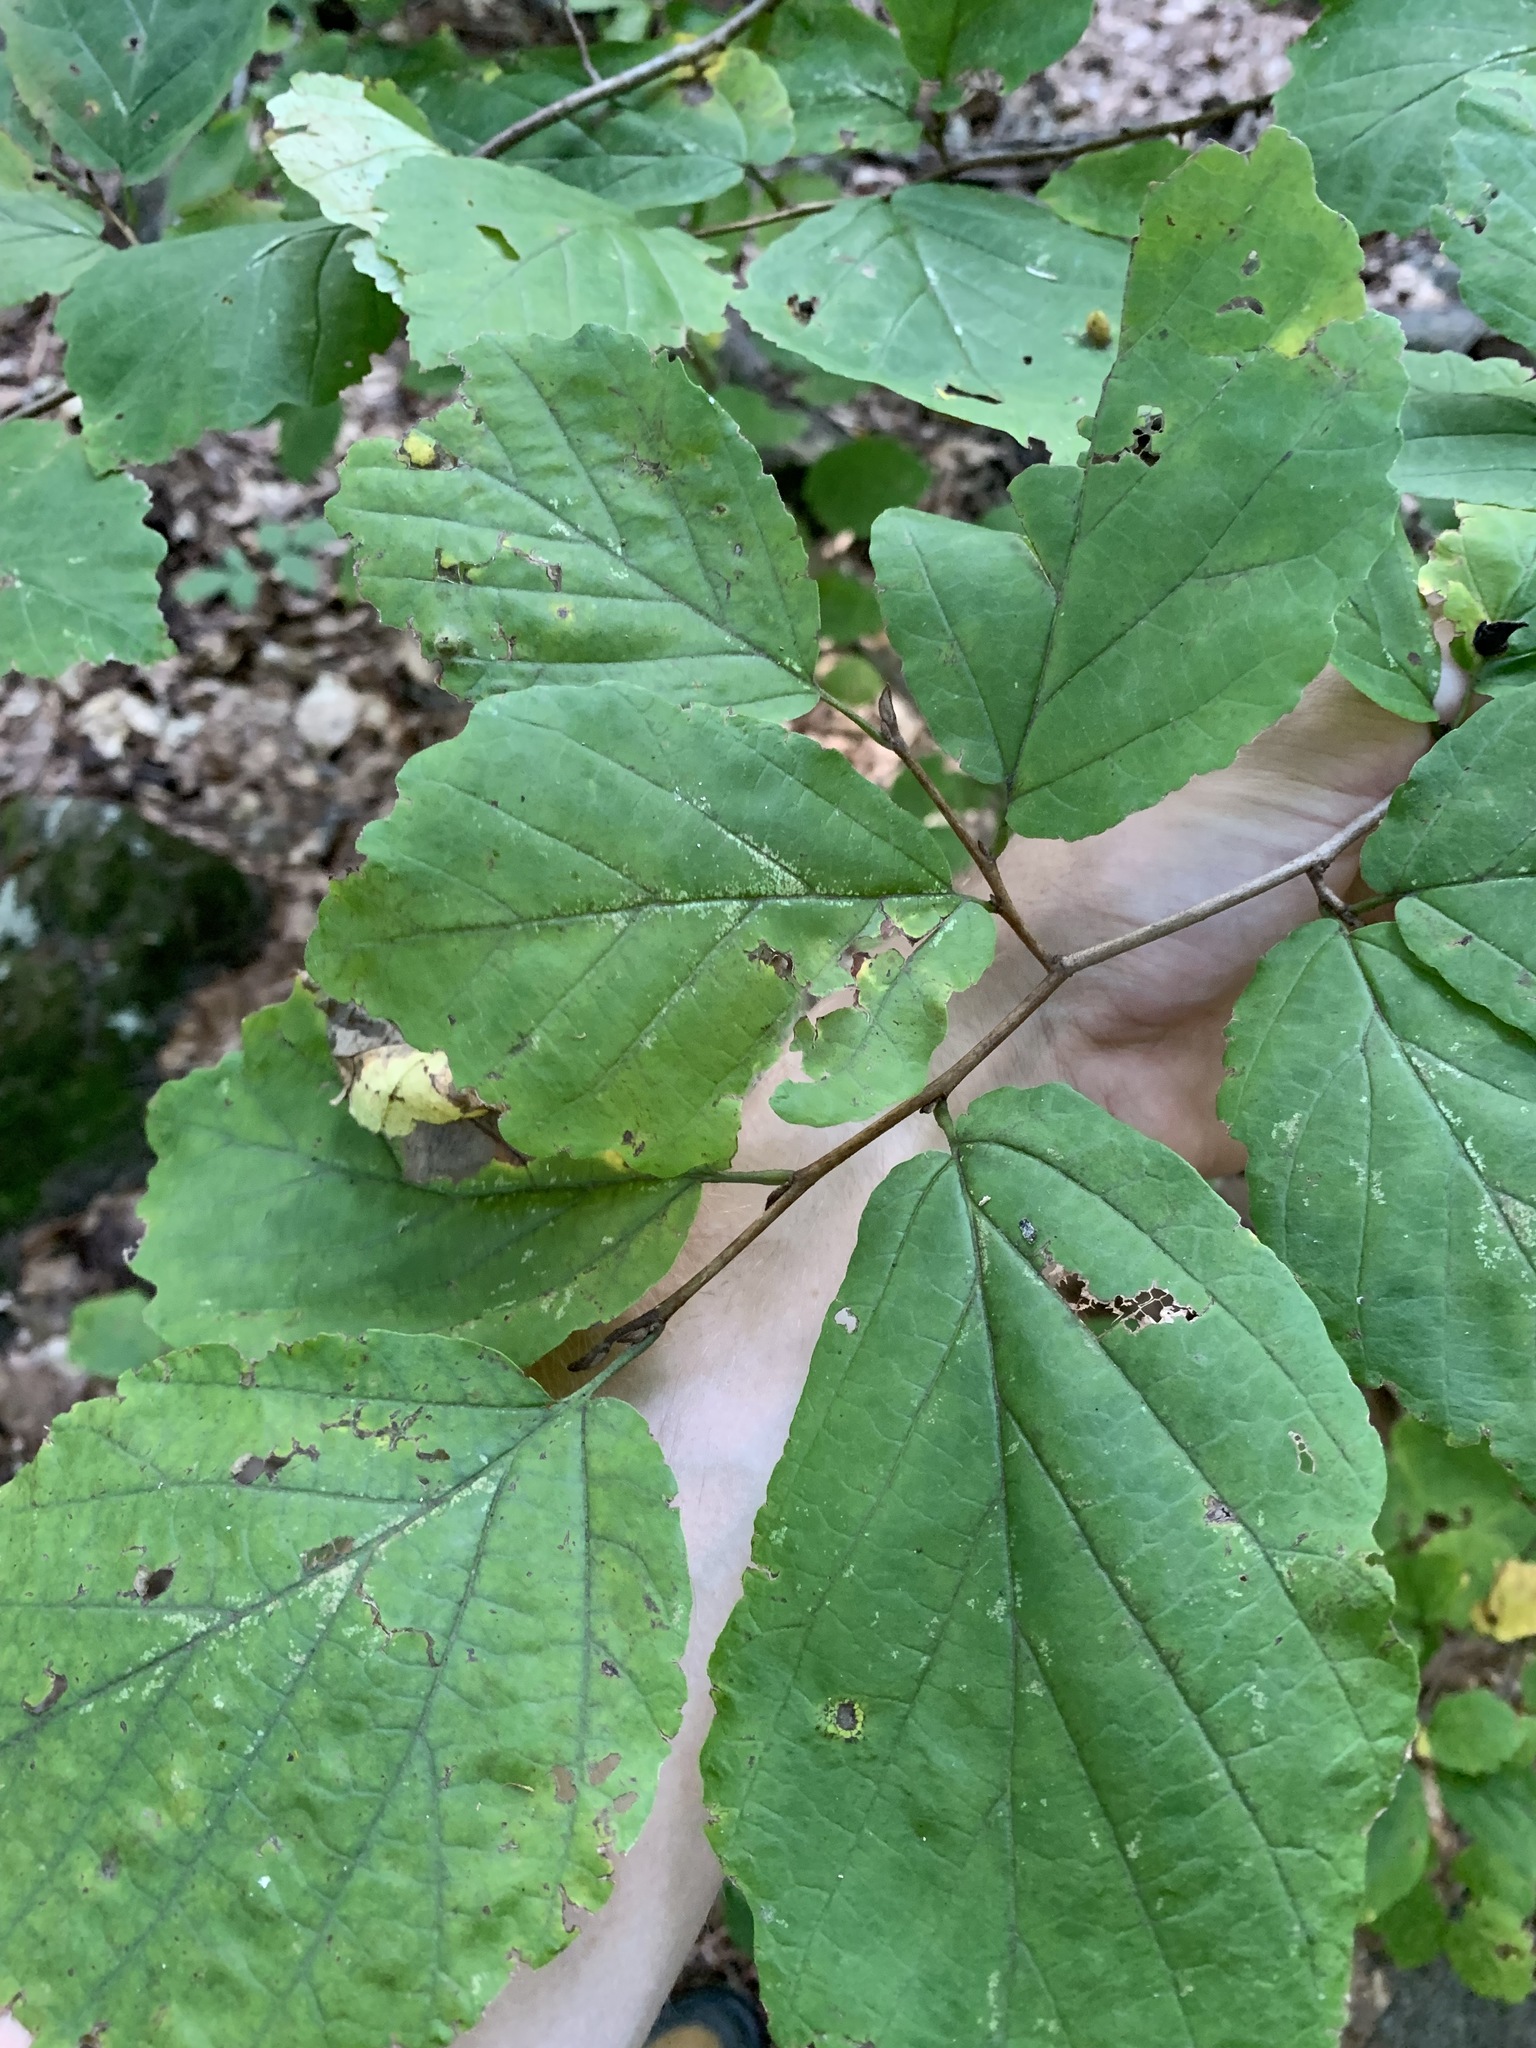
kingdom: Plantae
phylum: Tracheophyta
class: Magnoliopsida
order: Saxifragales
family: Hamamelidaceae
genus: Hamamelis
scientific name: Hamamelis virginiana
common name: Witch-hazel
